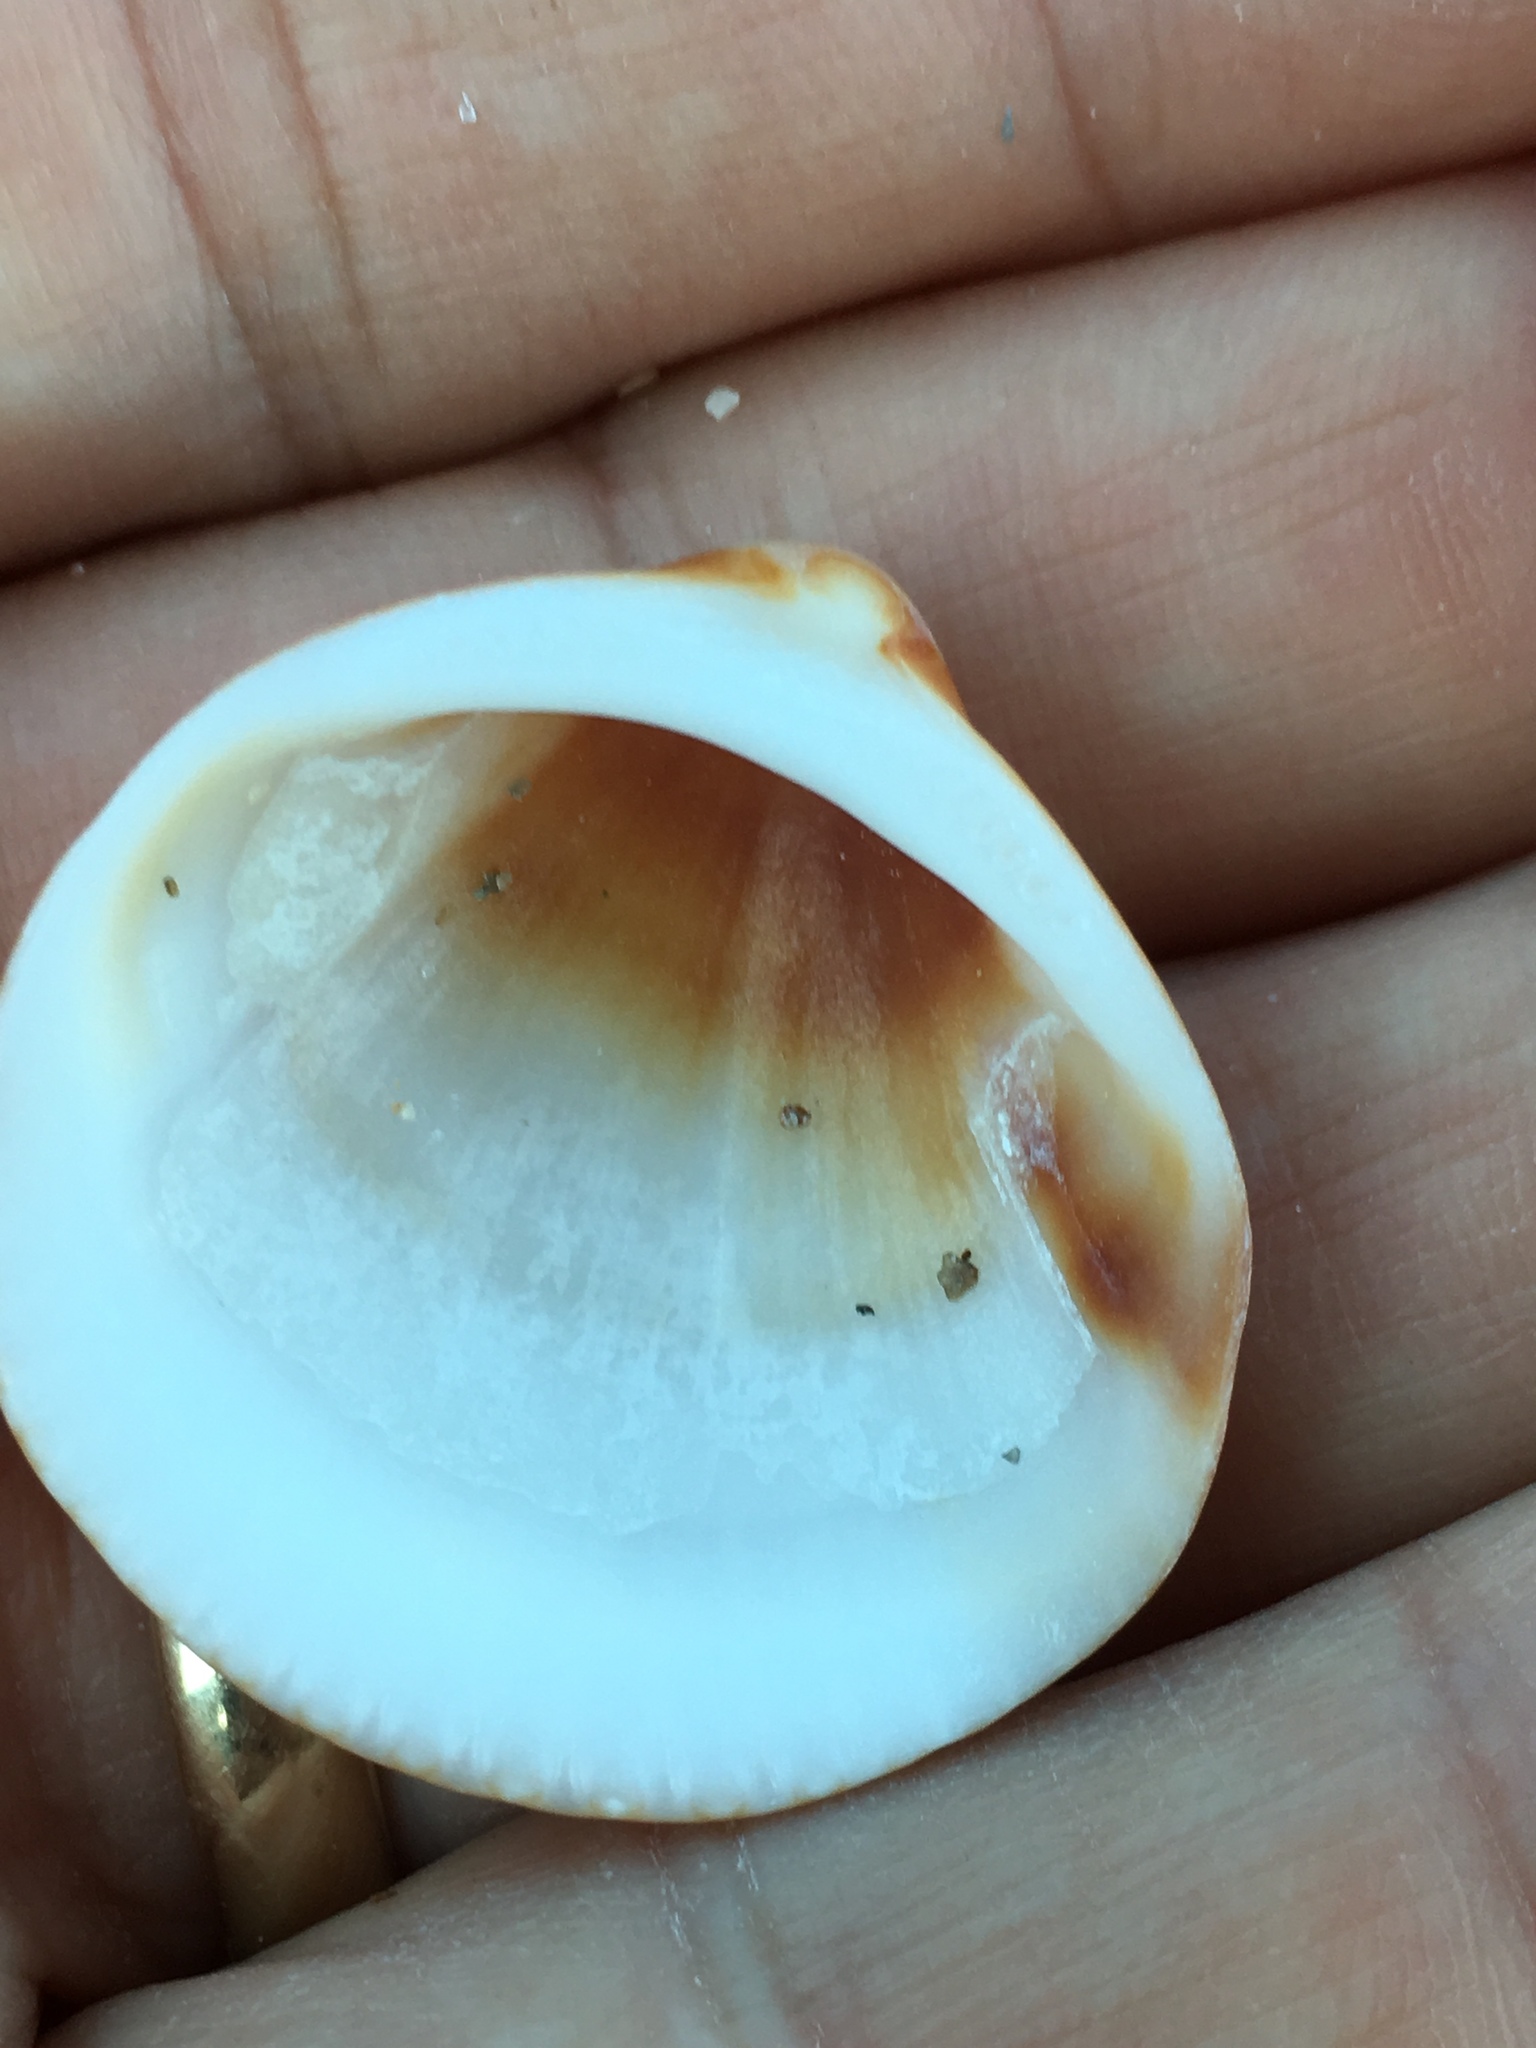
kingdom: Animalia
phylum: Mollusca
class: Bivalvia
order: Arcida
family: Glycymerididae
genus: Glycymeris
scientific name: Glycymeris spectralis
